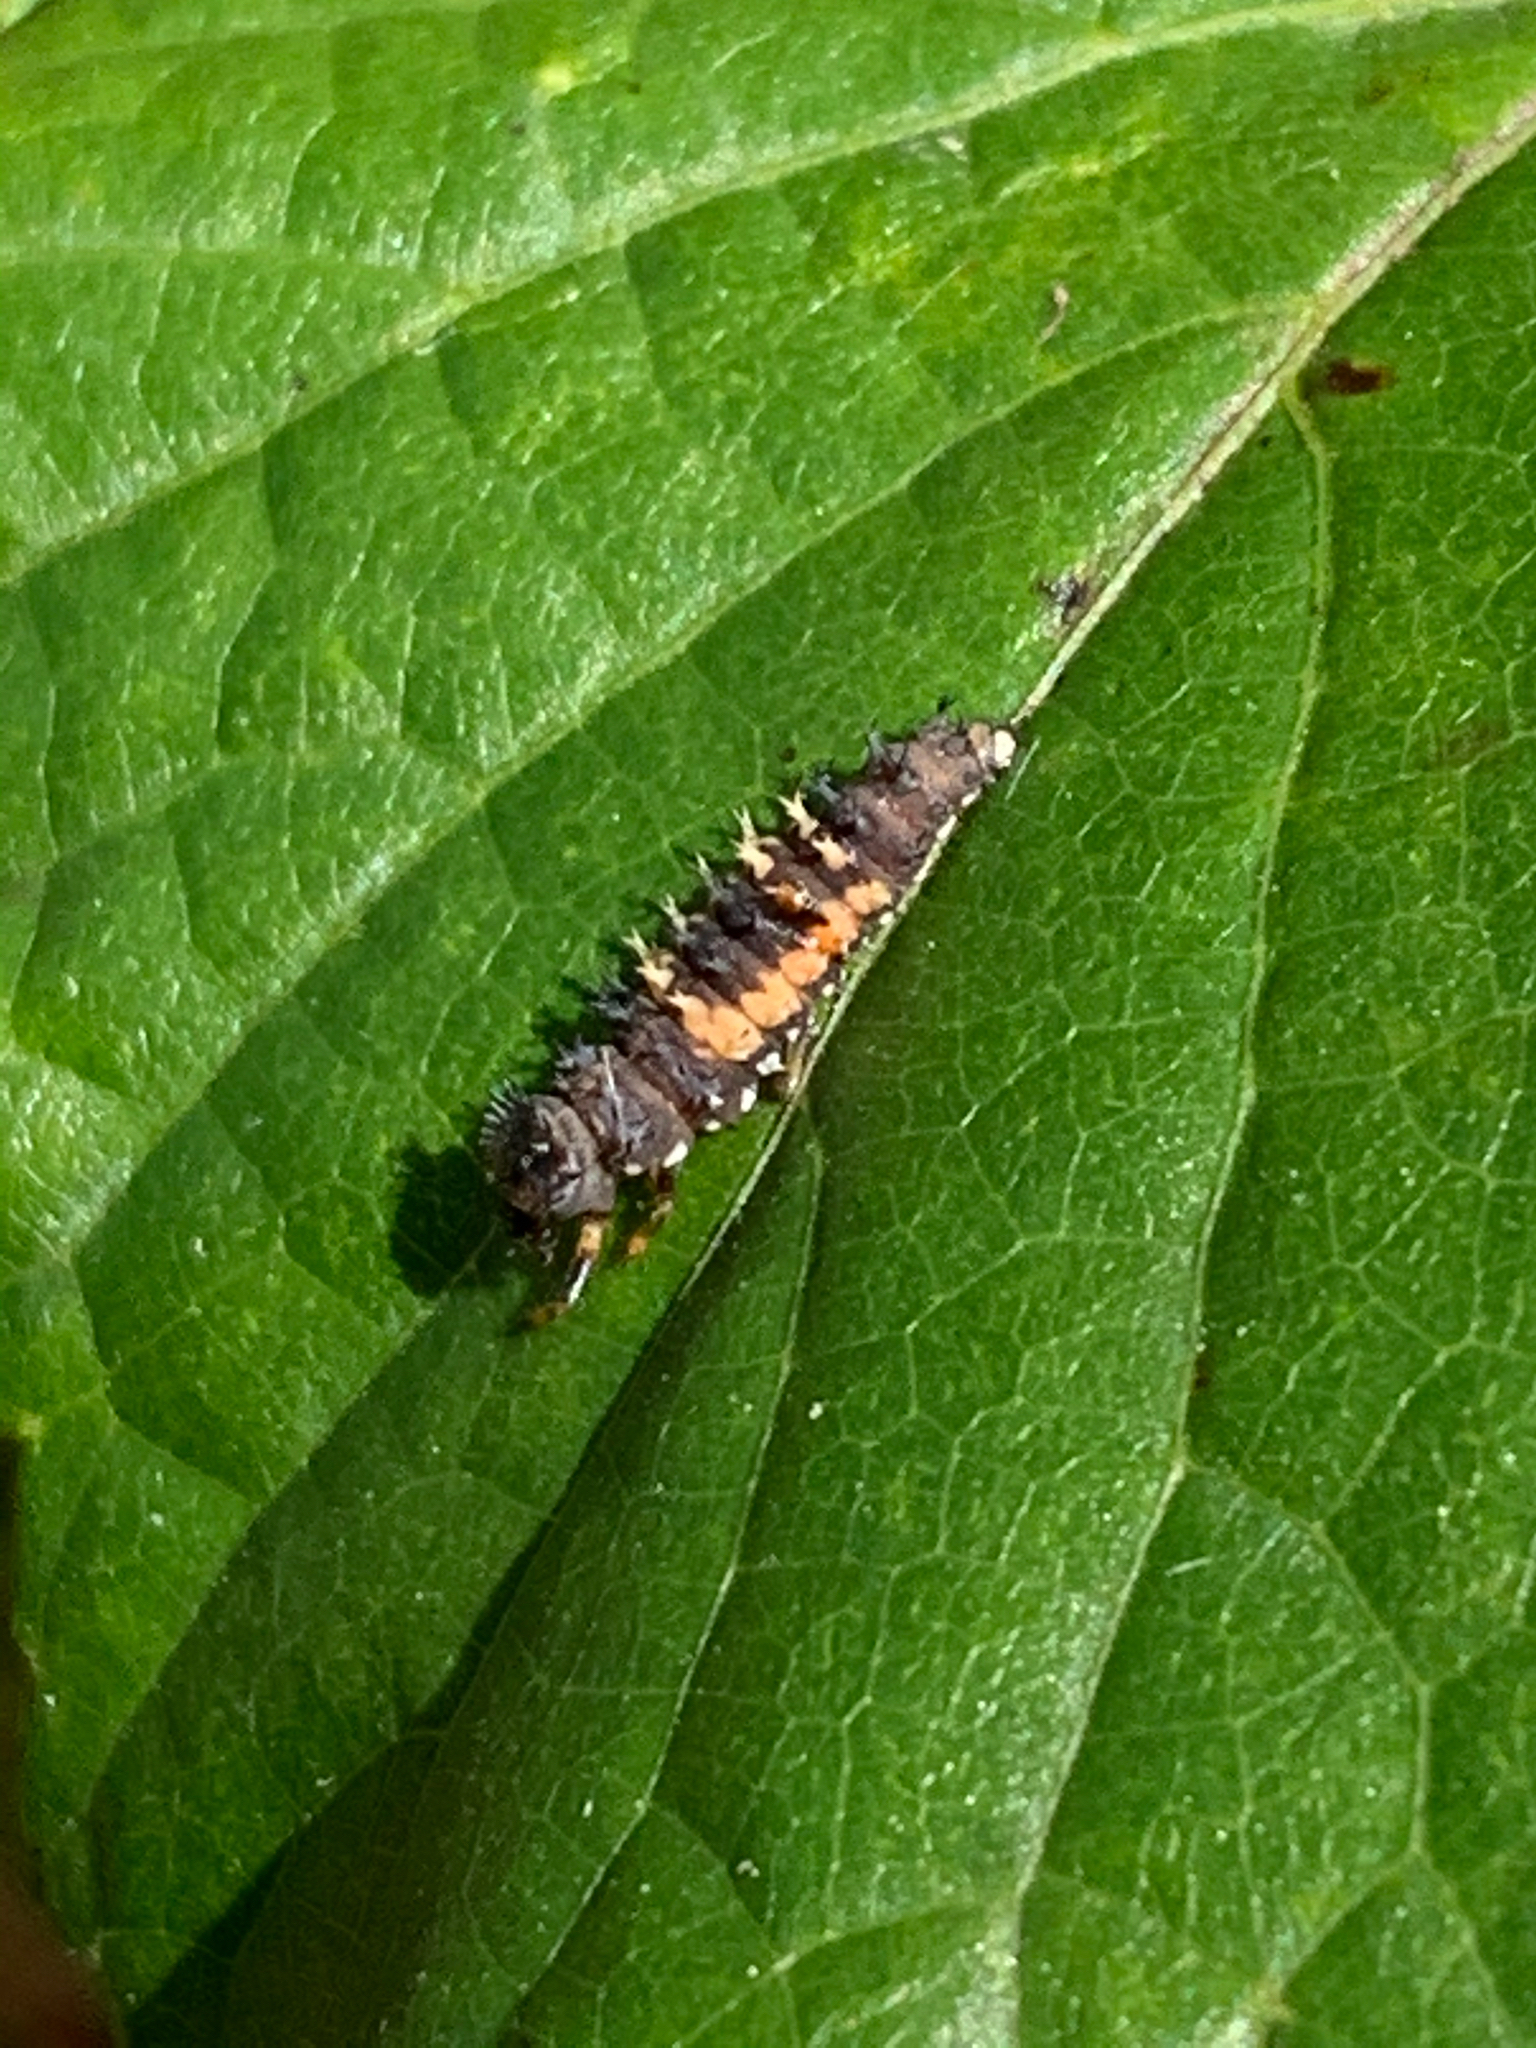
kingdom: Animalia
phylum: Arthropoda
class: Insecta
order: Coleoptera
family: Coccinellidae
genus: Harmonia
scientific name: Harmonia axyridis
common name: Harlequin ladybird
